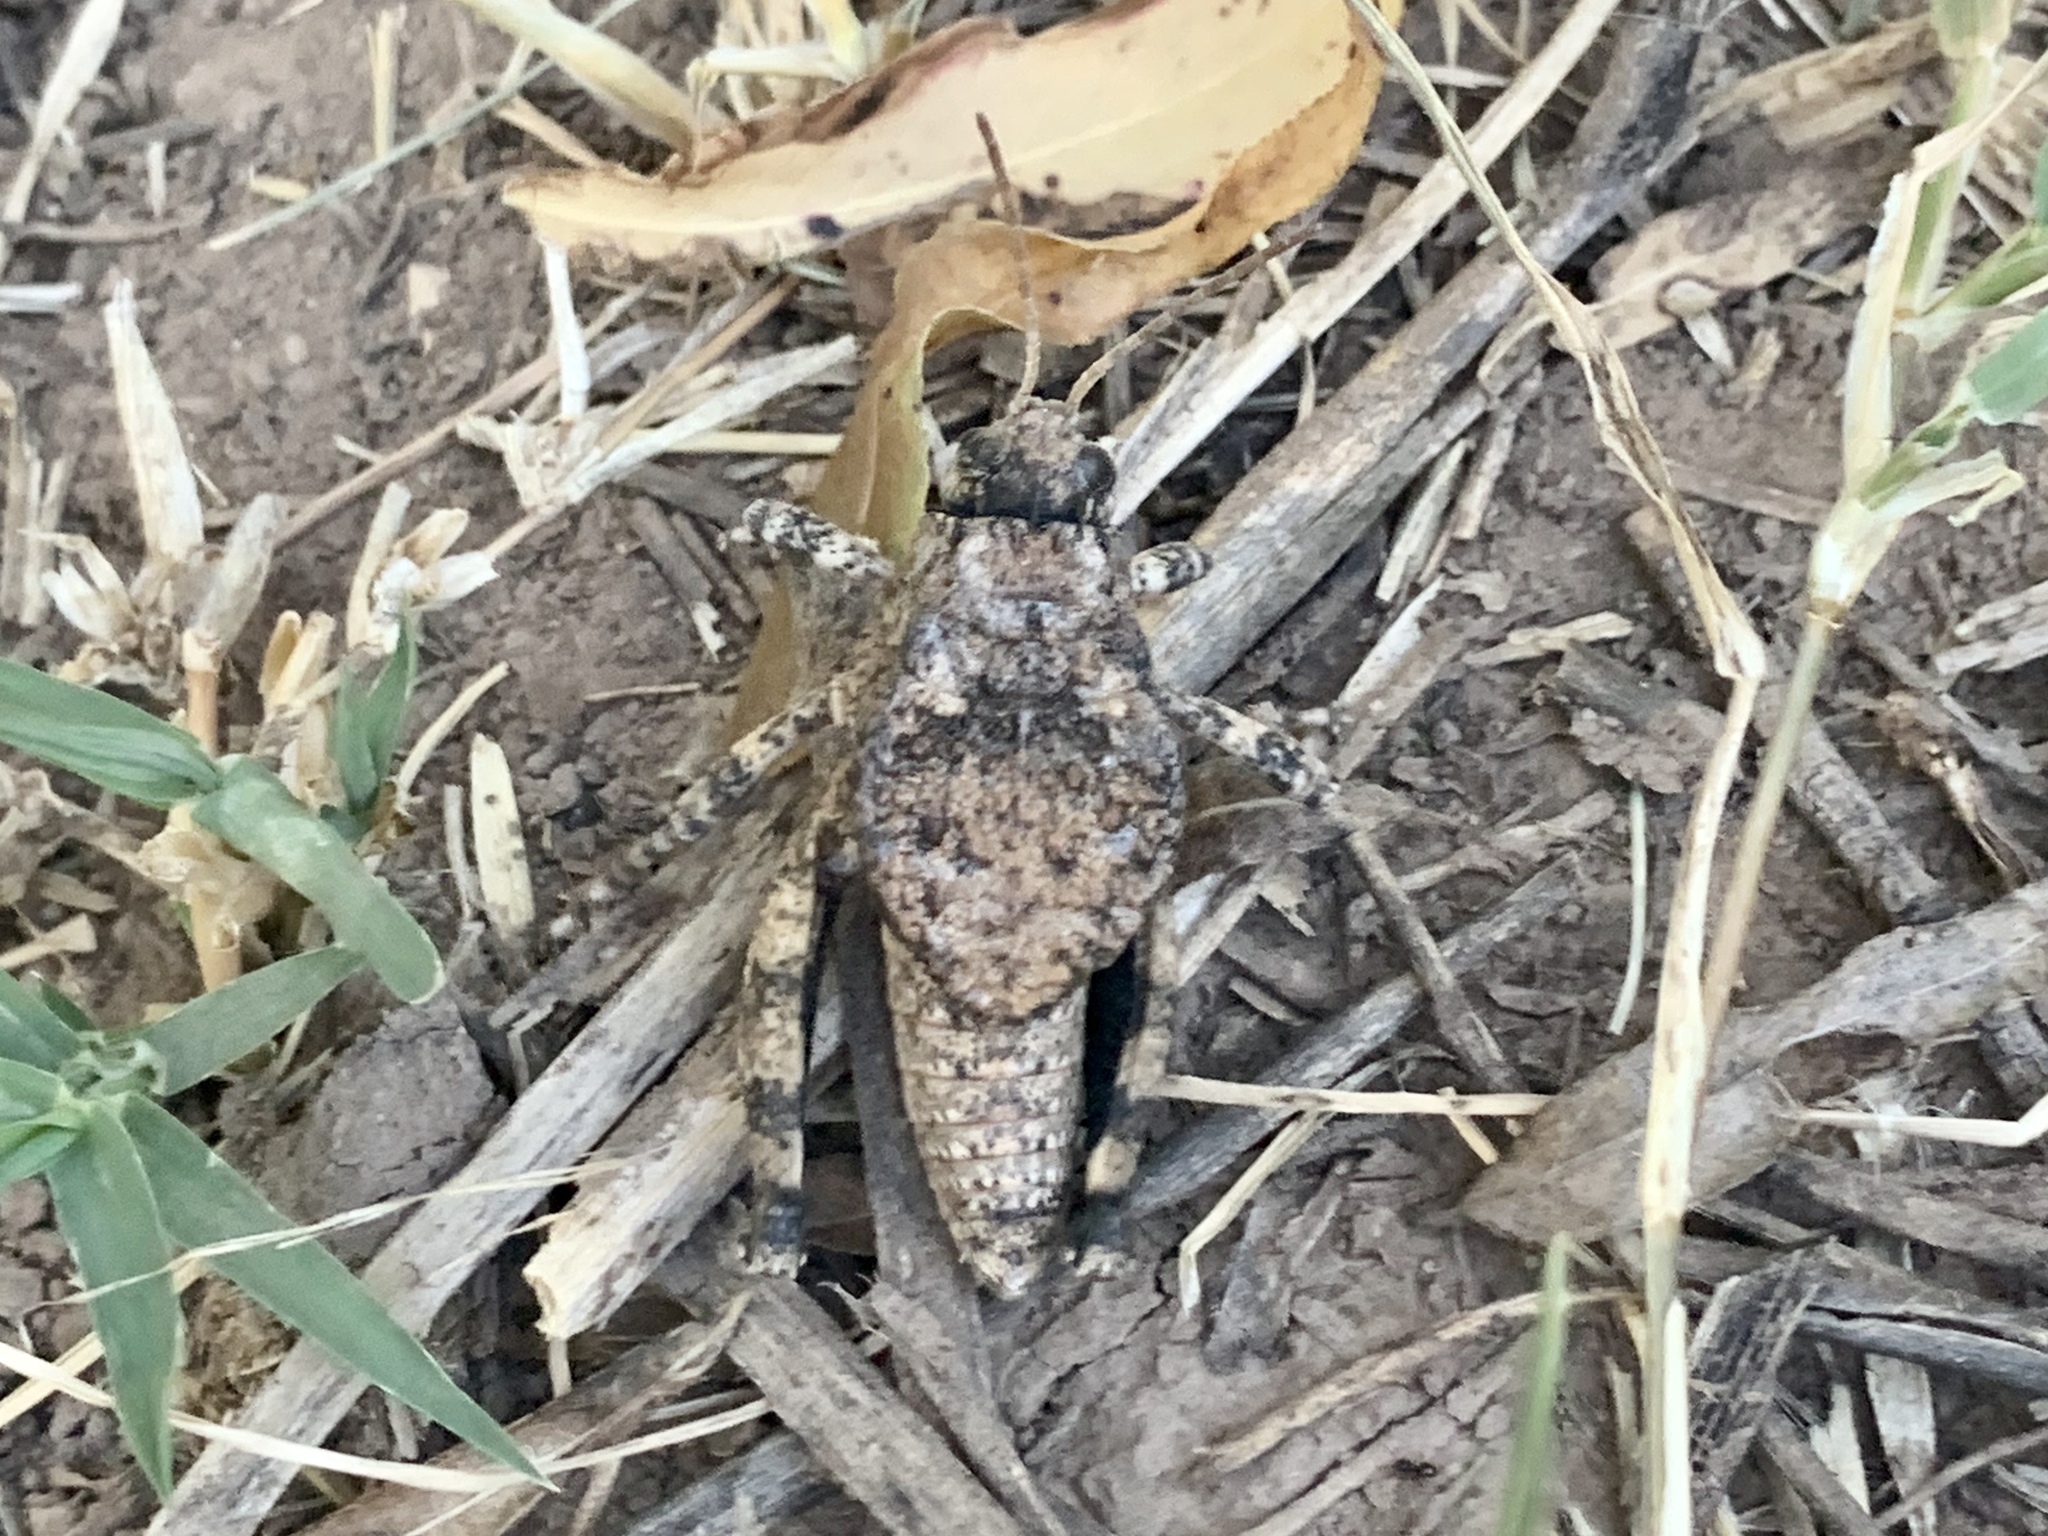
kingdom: Animalia
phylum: Arthropoda
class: Insecta
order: Orthoptera
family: Romaleidae
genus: Phrynotettix
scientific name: Phrynotettix tshivavensis
